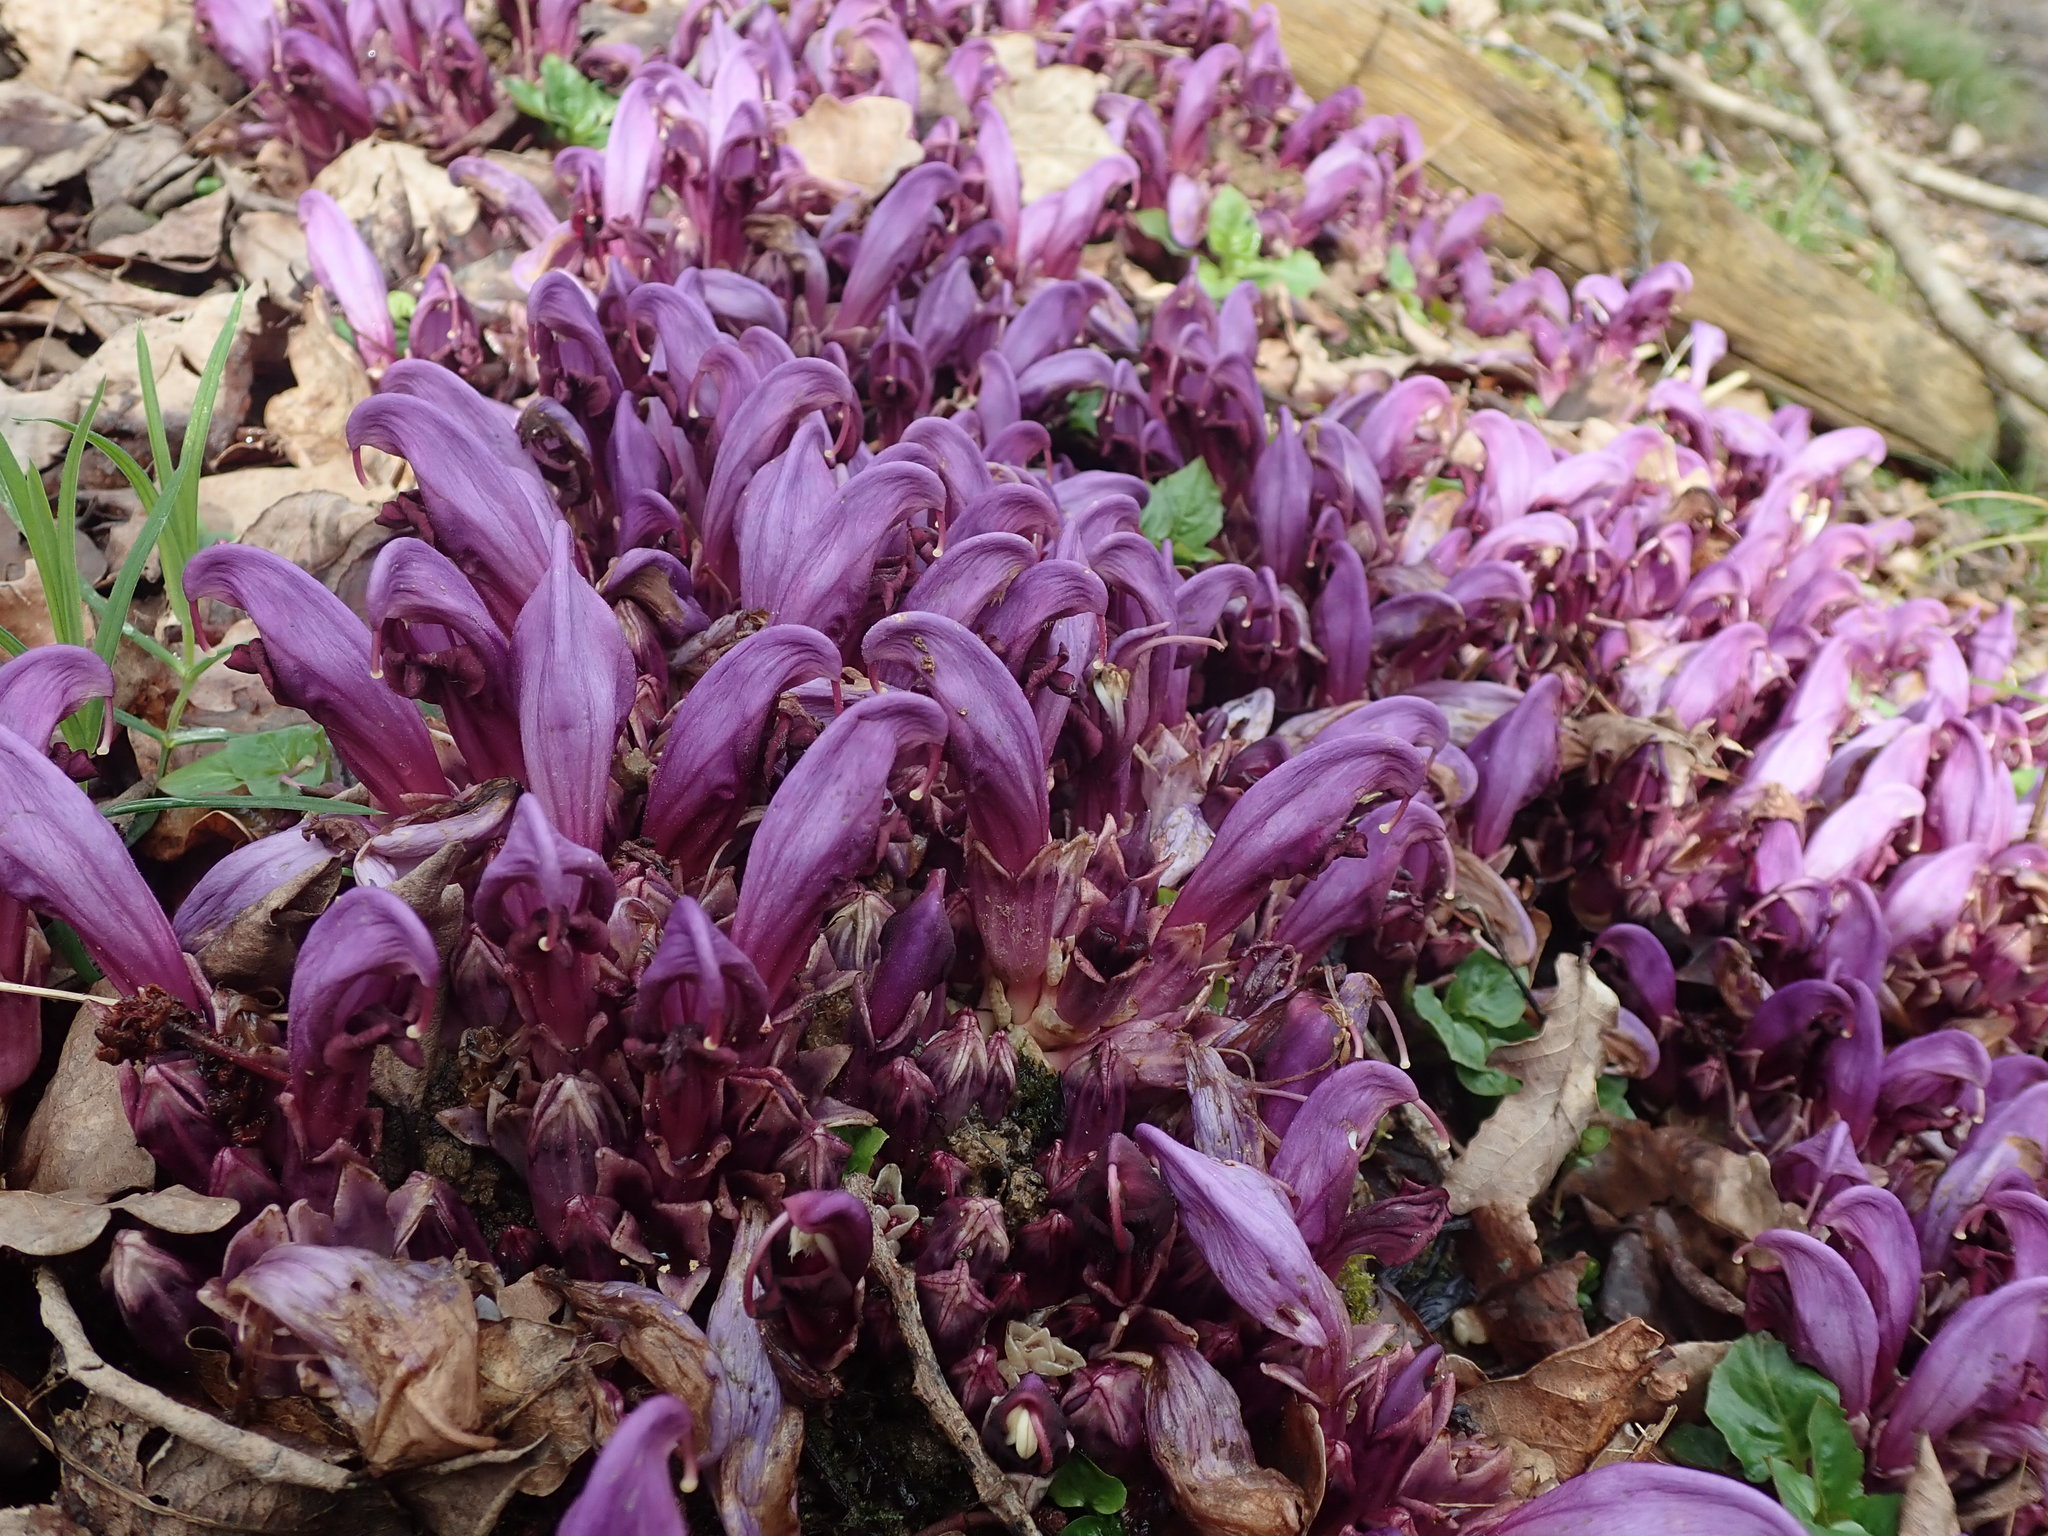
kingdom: Plantae
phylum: Tracheophyta
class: Magnoliopsida
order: Lamiales
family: Orobanchaceae
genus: Lathraea
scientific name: Lathraea clandestina
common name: Purple toothwort
